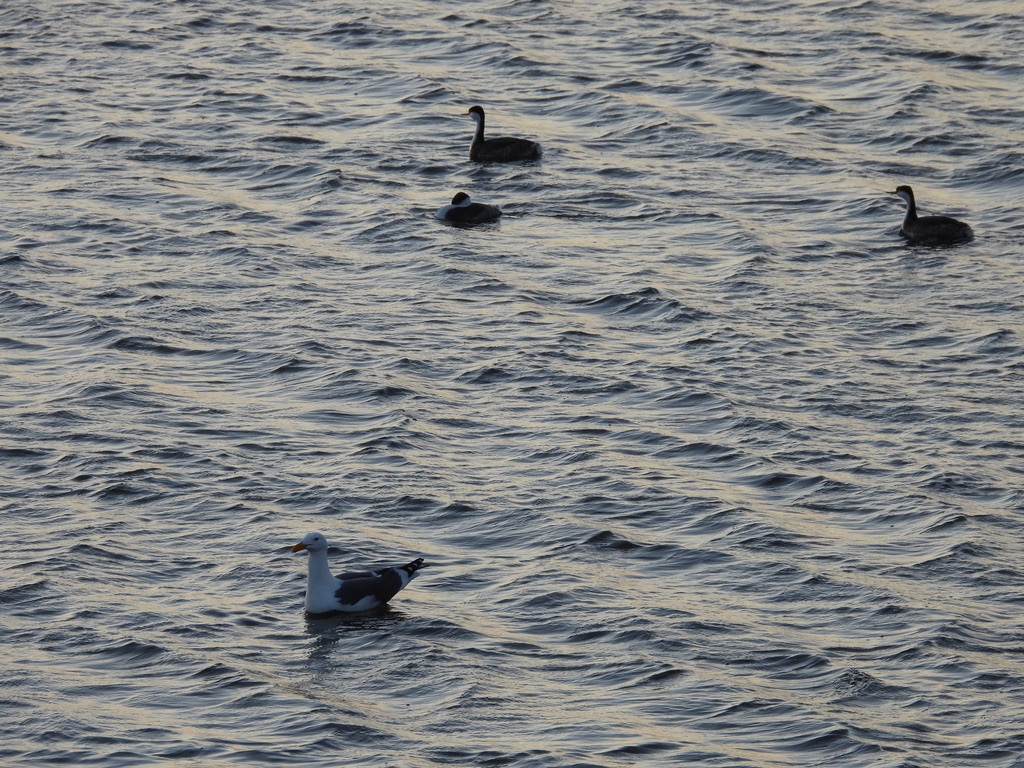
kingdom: Animalia
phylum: Chordata
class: Aves
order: Podicipediformes
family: Podicipedidae
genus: Aechmophorus
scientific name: Aechmophorus occidentalis
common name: Western grebe
